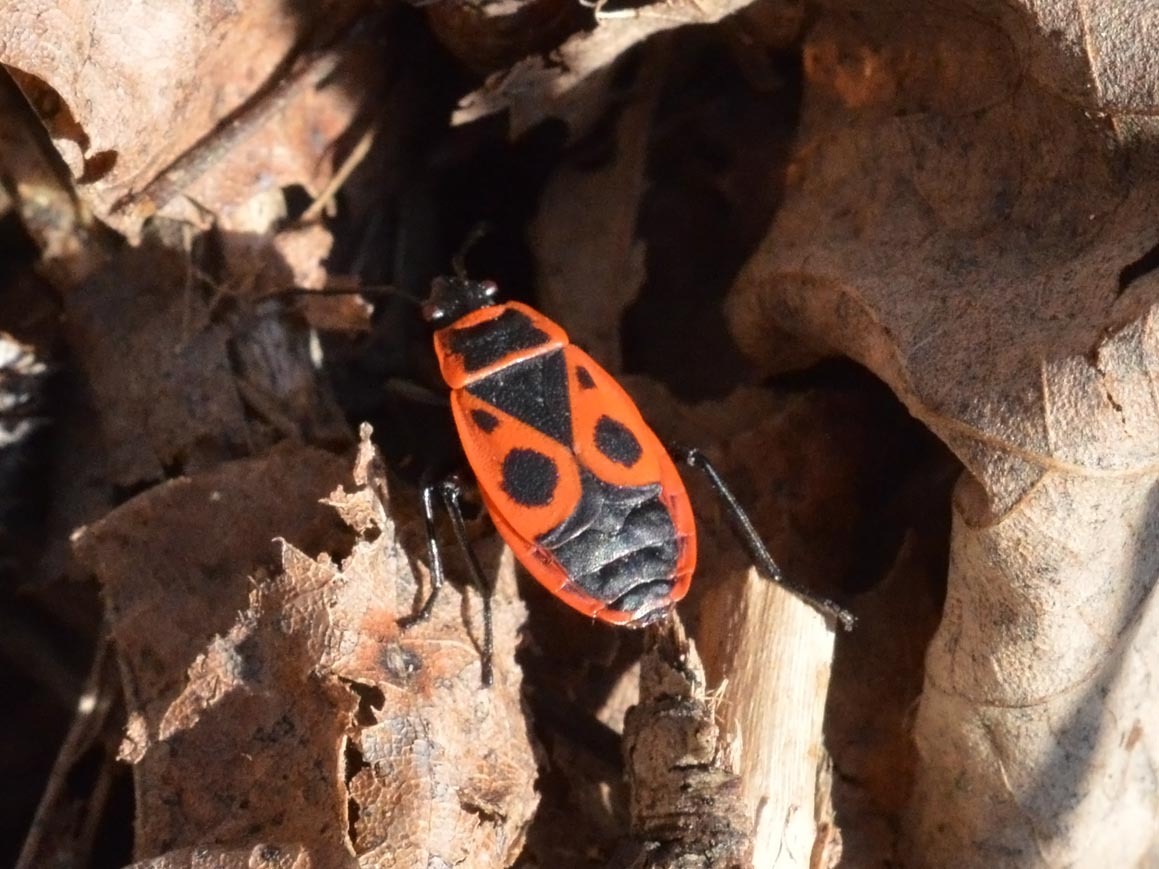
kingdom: Animalia
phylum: Arthropoda
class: Insecta
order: Hemiptera
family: Pyrrhocoridae
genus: Pyrrhocoris
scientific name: Pyrrhocoris apterus
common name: Firebug
